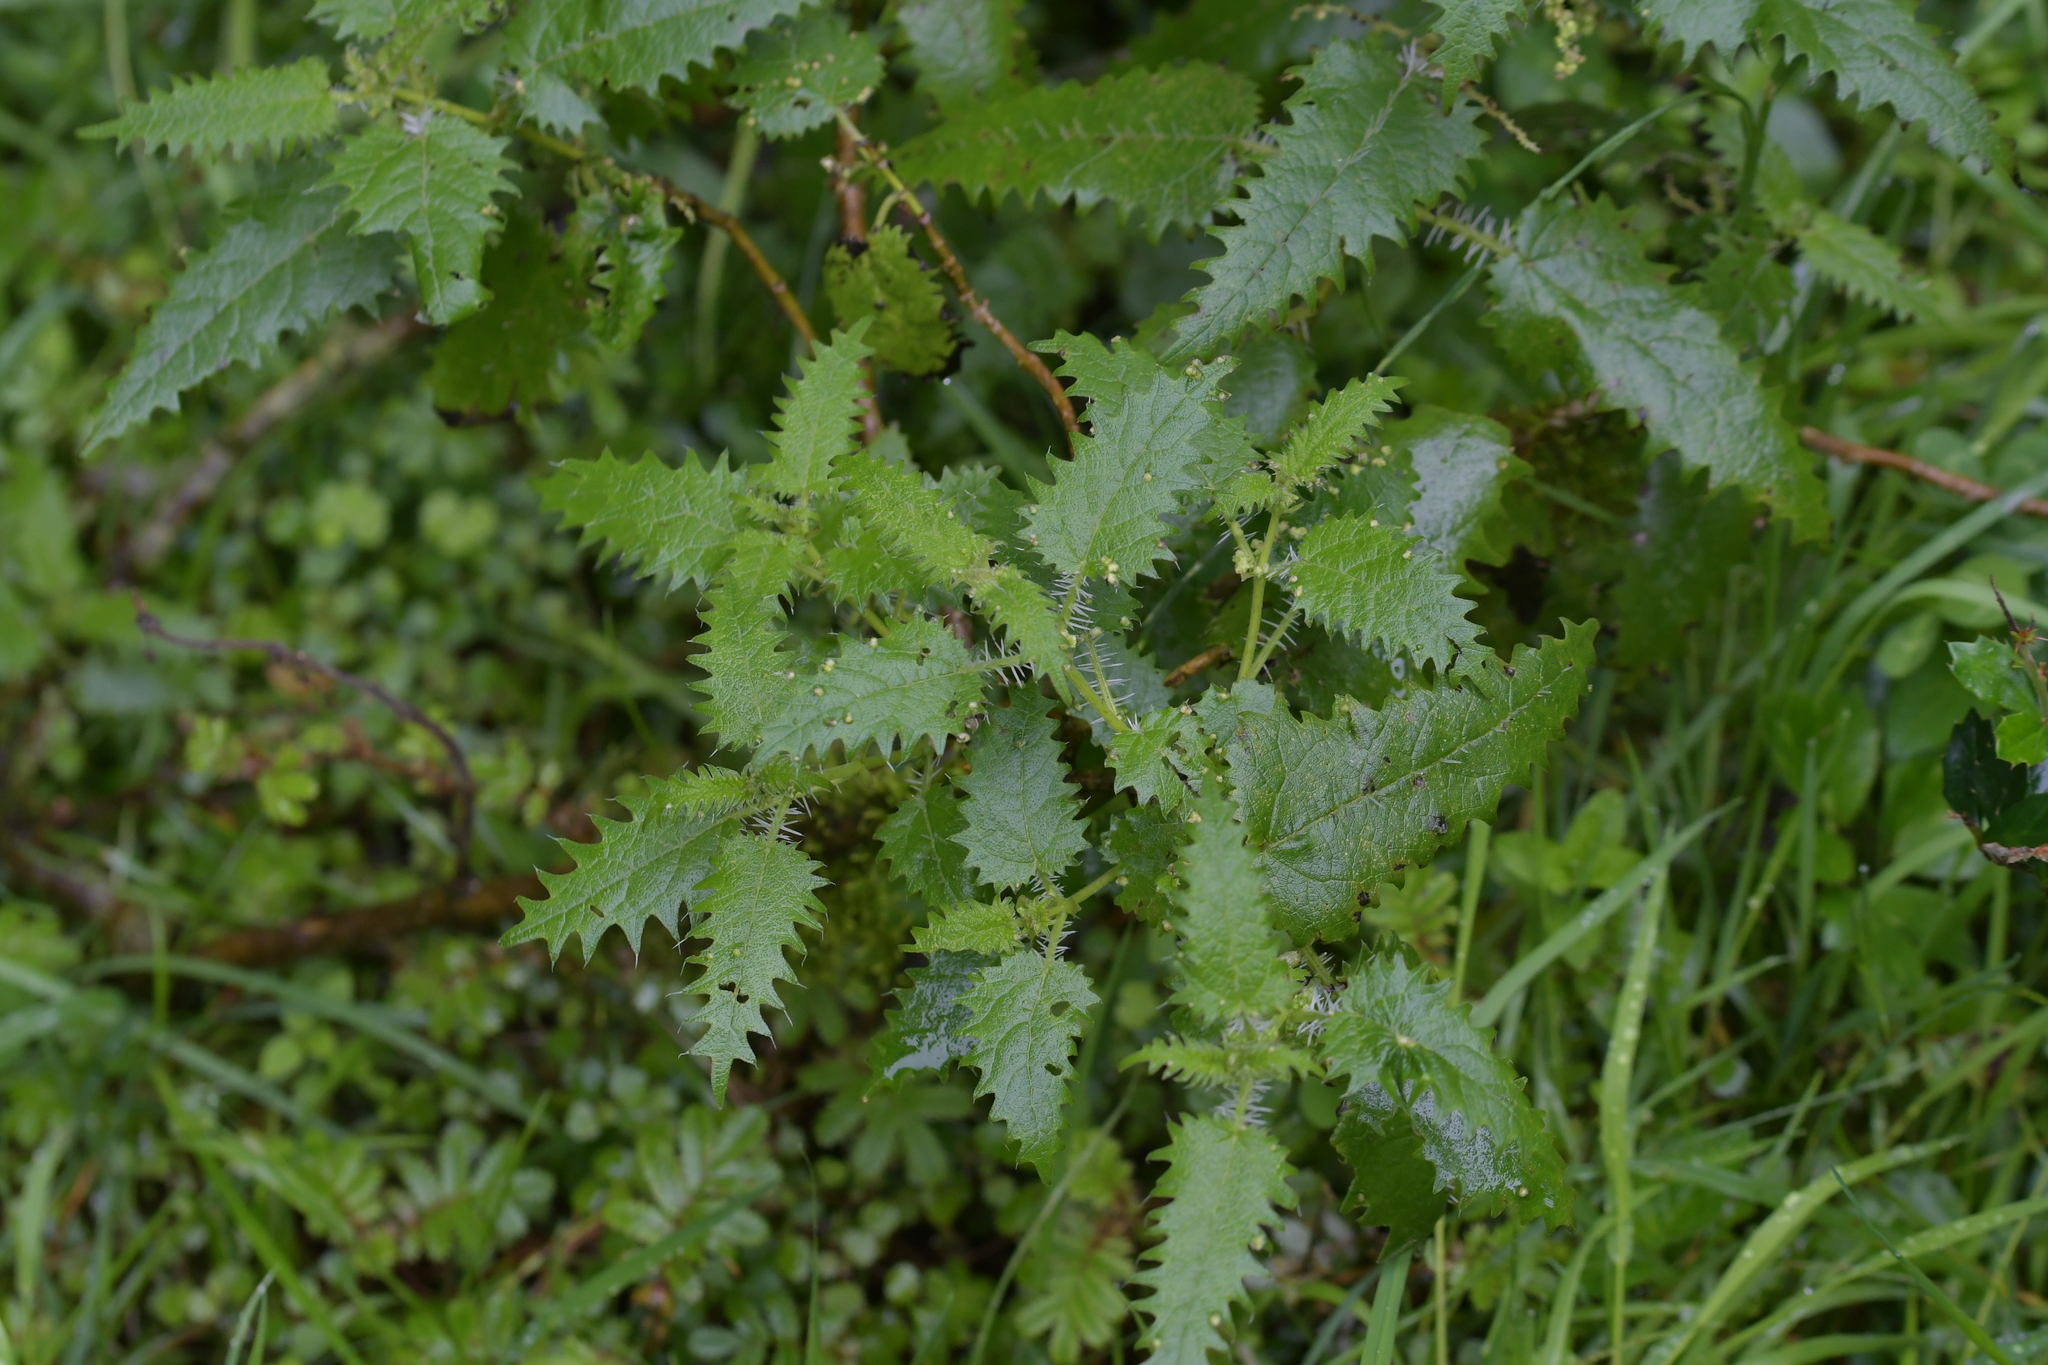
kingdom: Plantae
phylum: Tracheophyta
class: Magnoliopsida
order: Rosales
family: Urticaceae
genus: Urtica
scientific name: Urtica ferox
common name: Tree nettle
